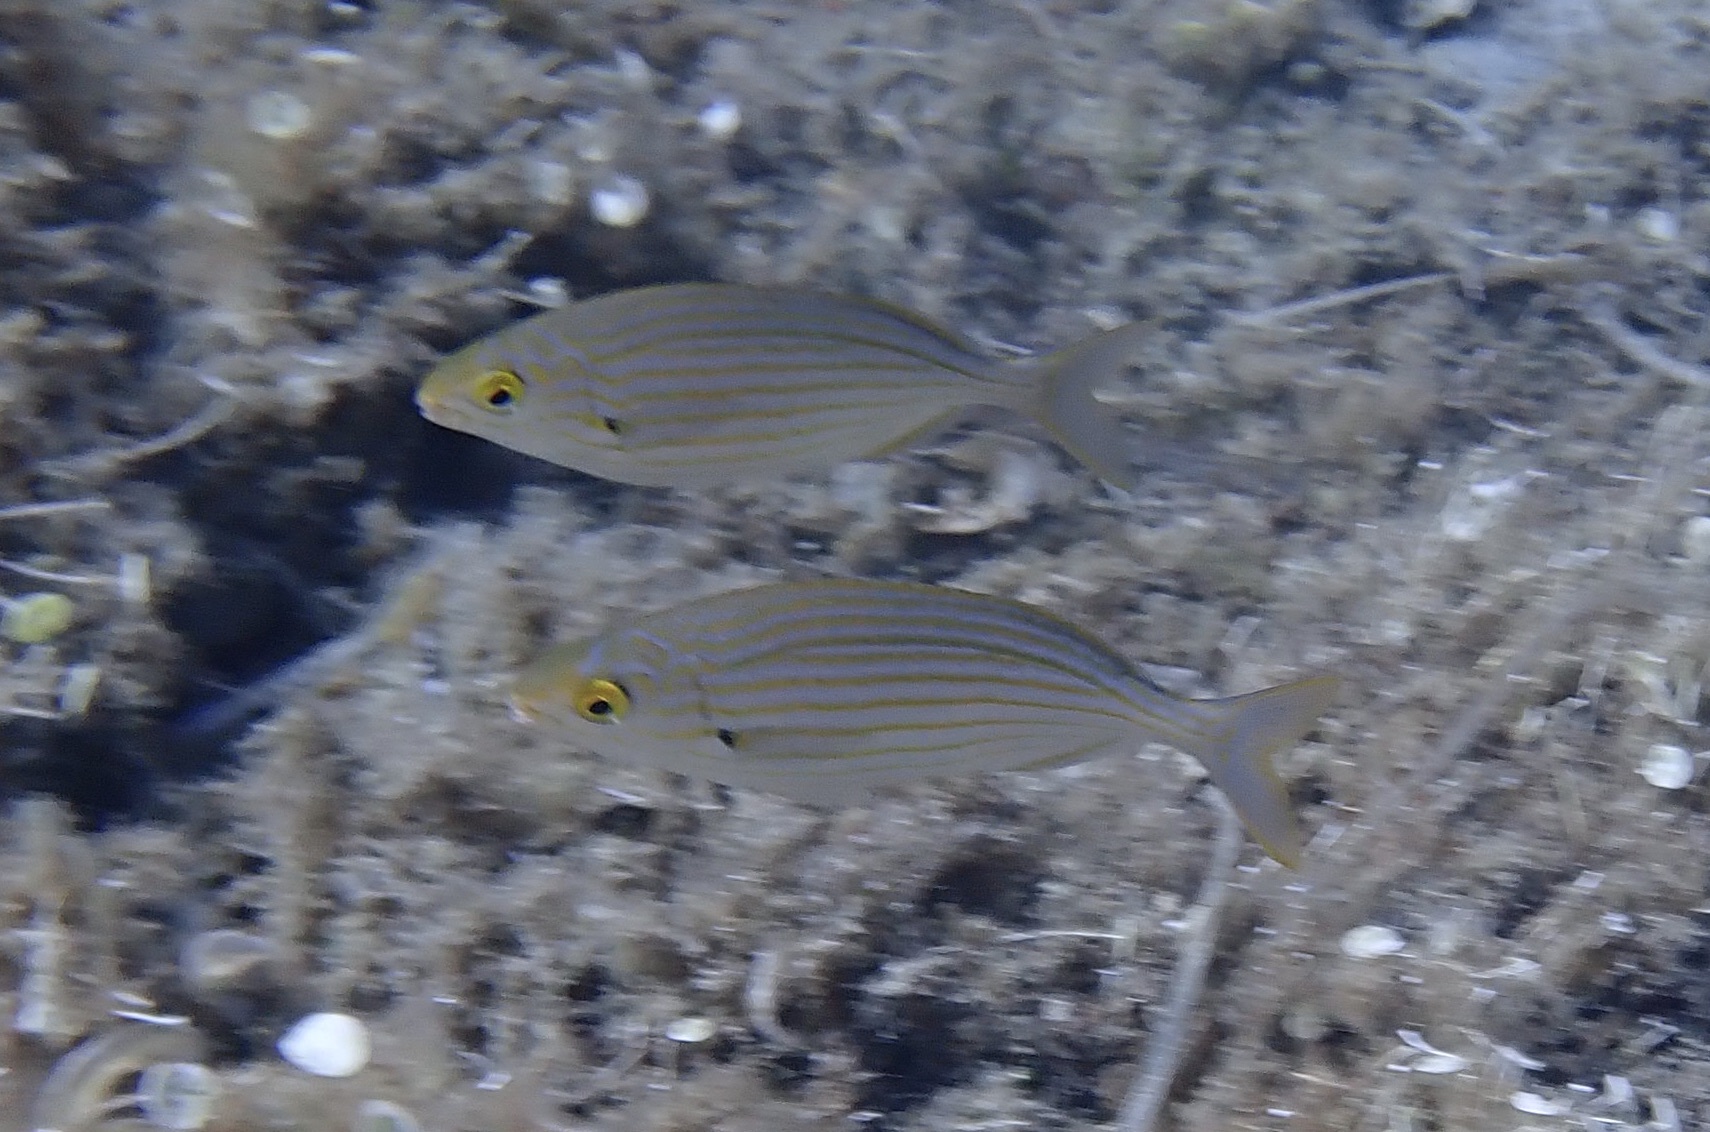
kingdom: Animalia
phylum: Chordata
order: Perciformes
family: Sparidae
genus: Sarpa
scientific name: Sarpa salpa
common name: Salema
